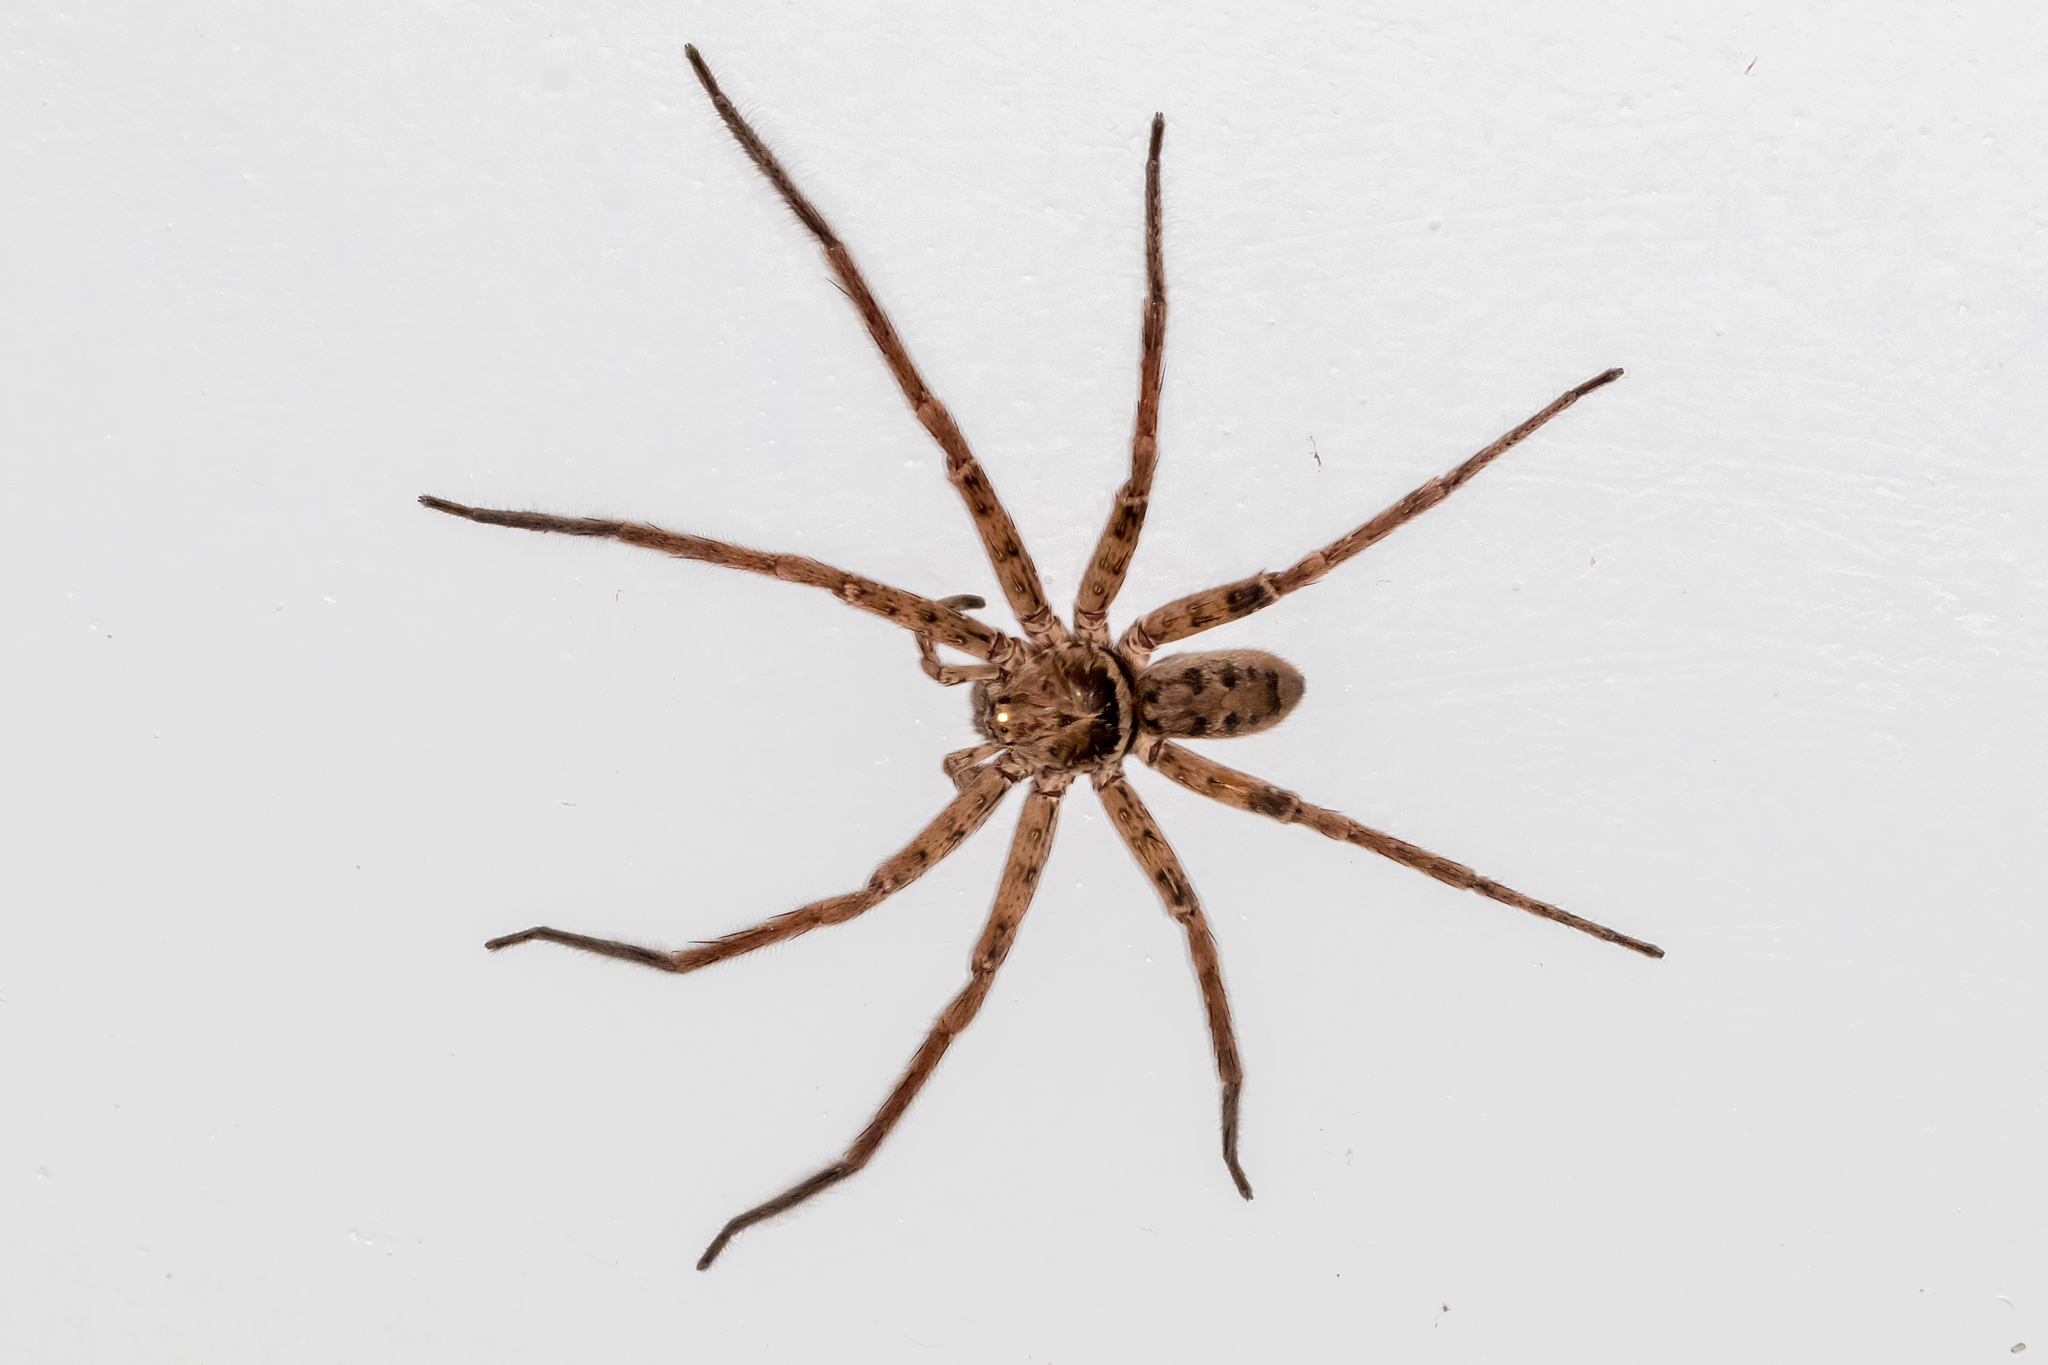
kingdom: Animalia
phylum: Arthropoda
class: Arachnida
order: Araneae
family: Sparassidae
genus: Heteropoda
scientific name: Heteropoda jugulans
